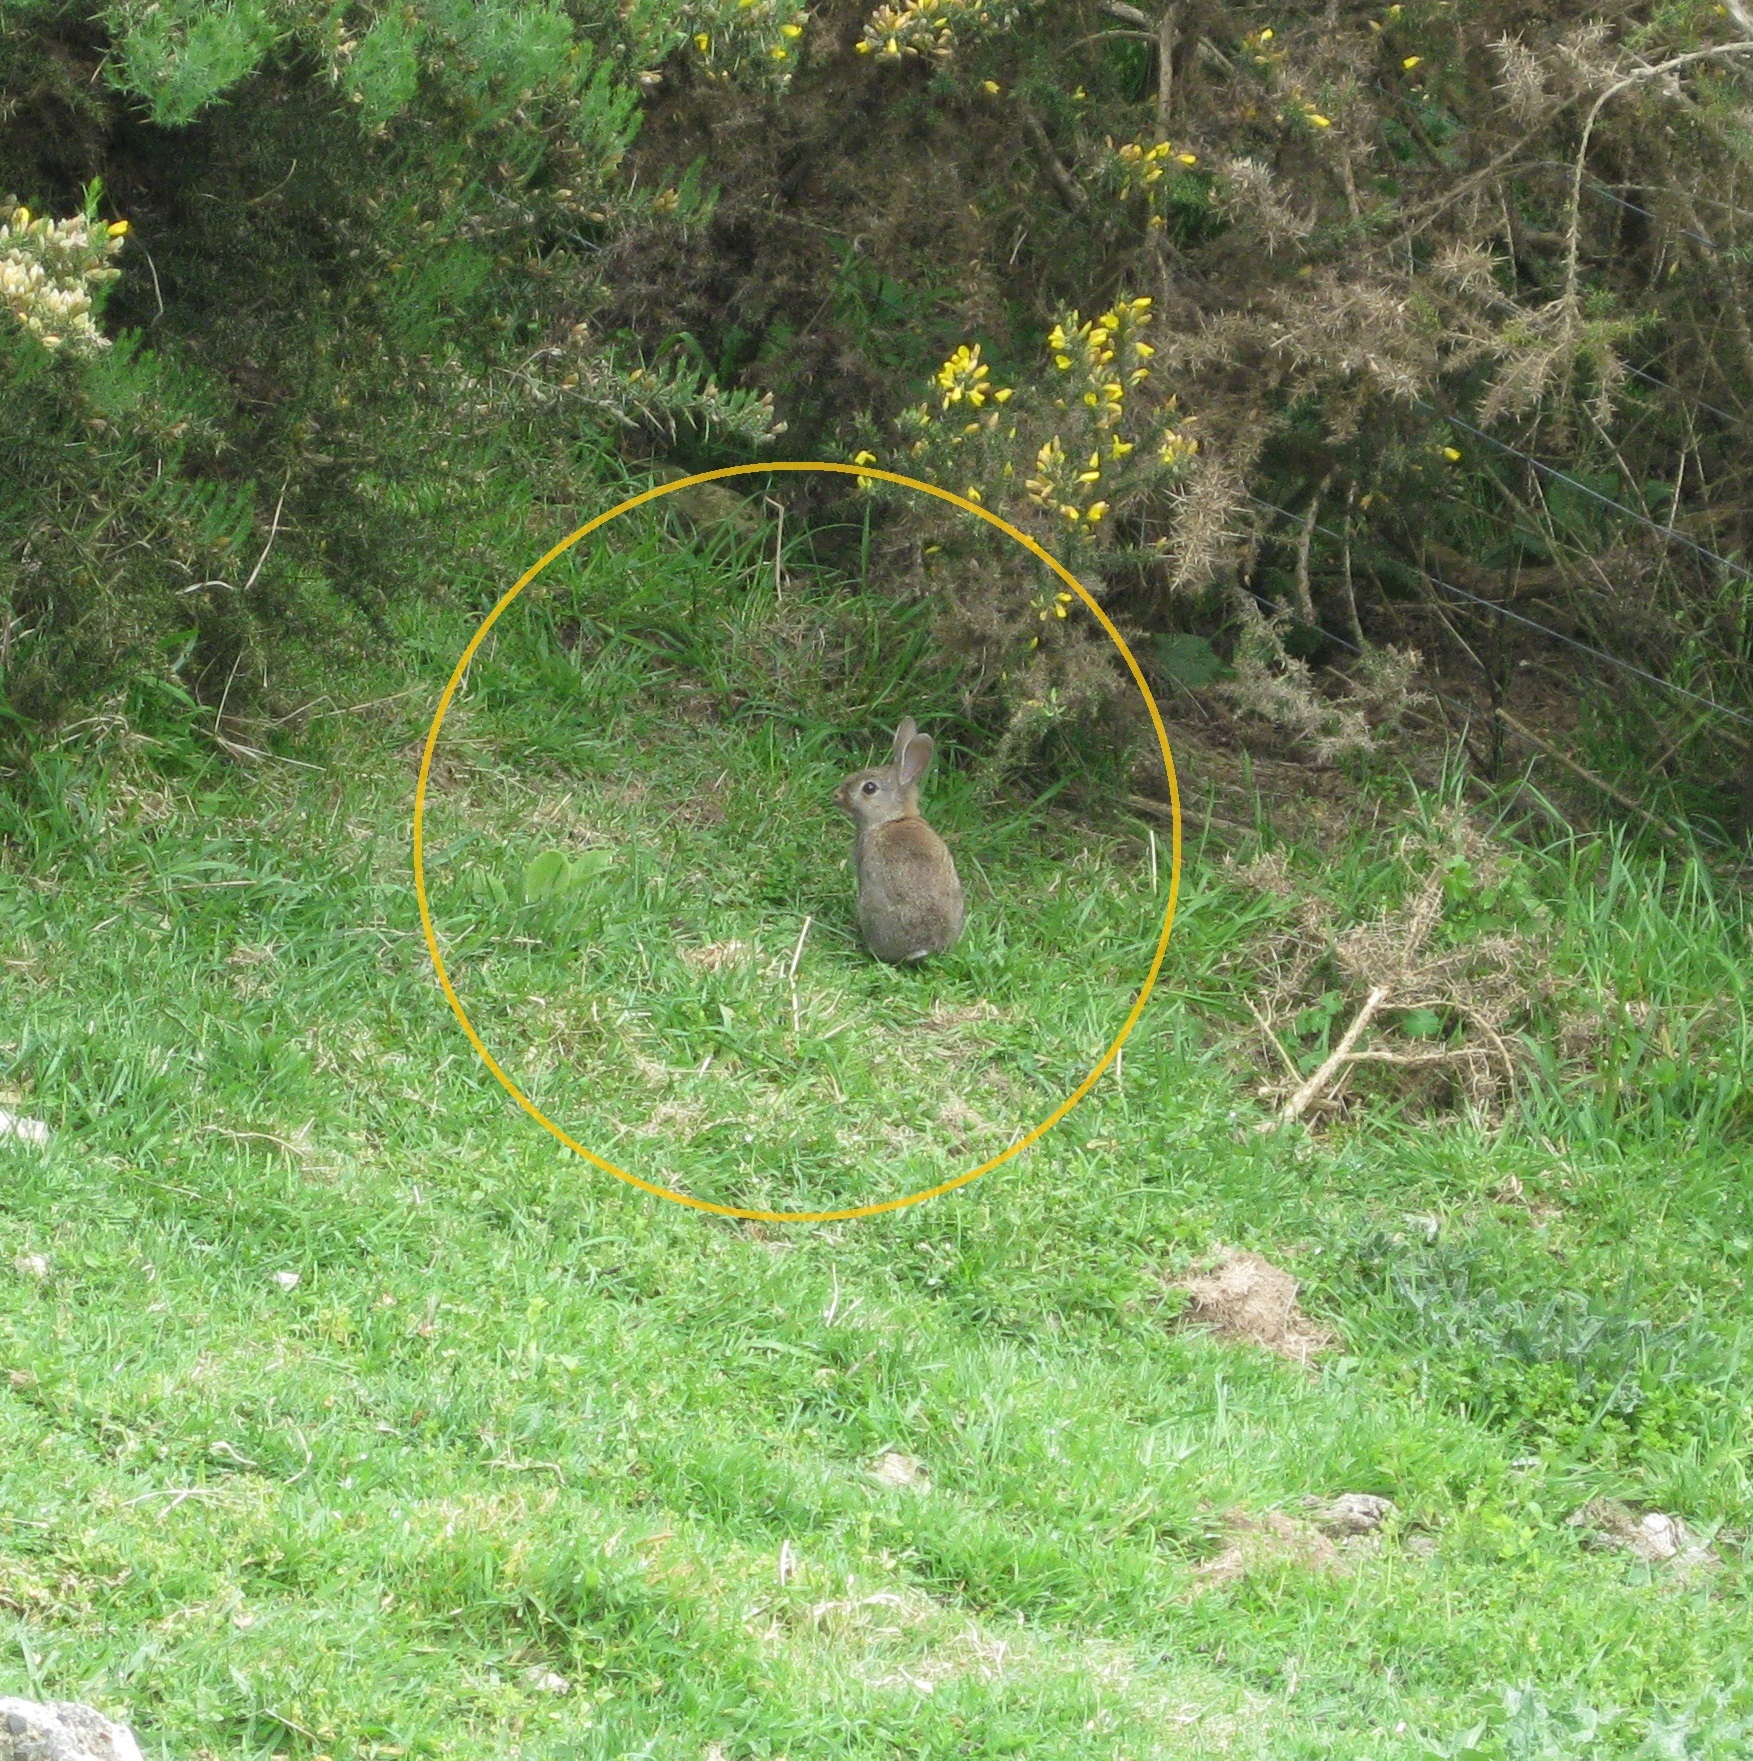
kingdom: Animalia
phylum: Chordata
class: Mammalia
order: Lagomorpha
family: Leporidae
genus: Oryctolagus
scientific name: Oryctolagus cuniculus
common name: European rabbit
